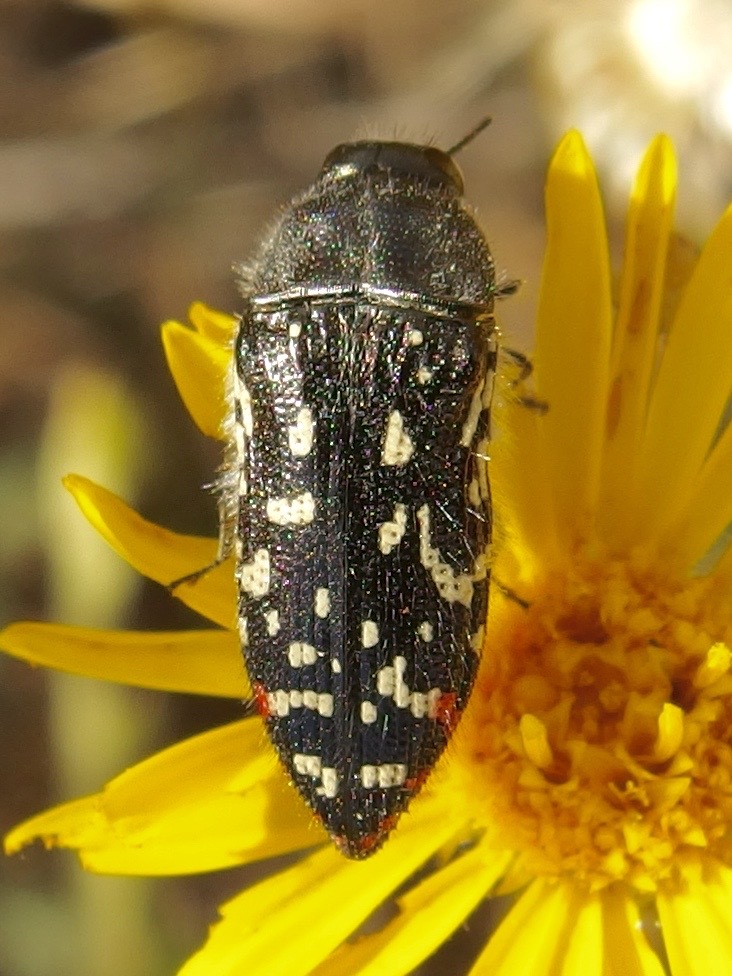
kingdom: Animalia
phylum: Arthropoda
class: Insecta
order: Coleoptera
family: Buprestidae
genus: Acmaeodera
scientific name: Acmaeodera rubronotata
